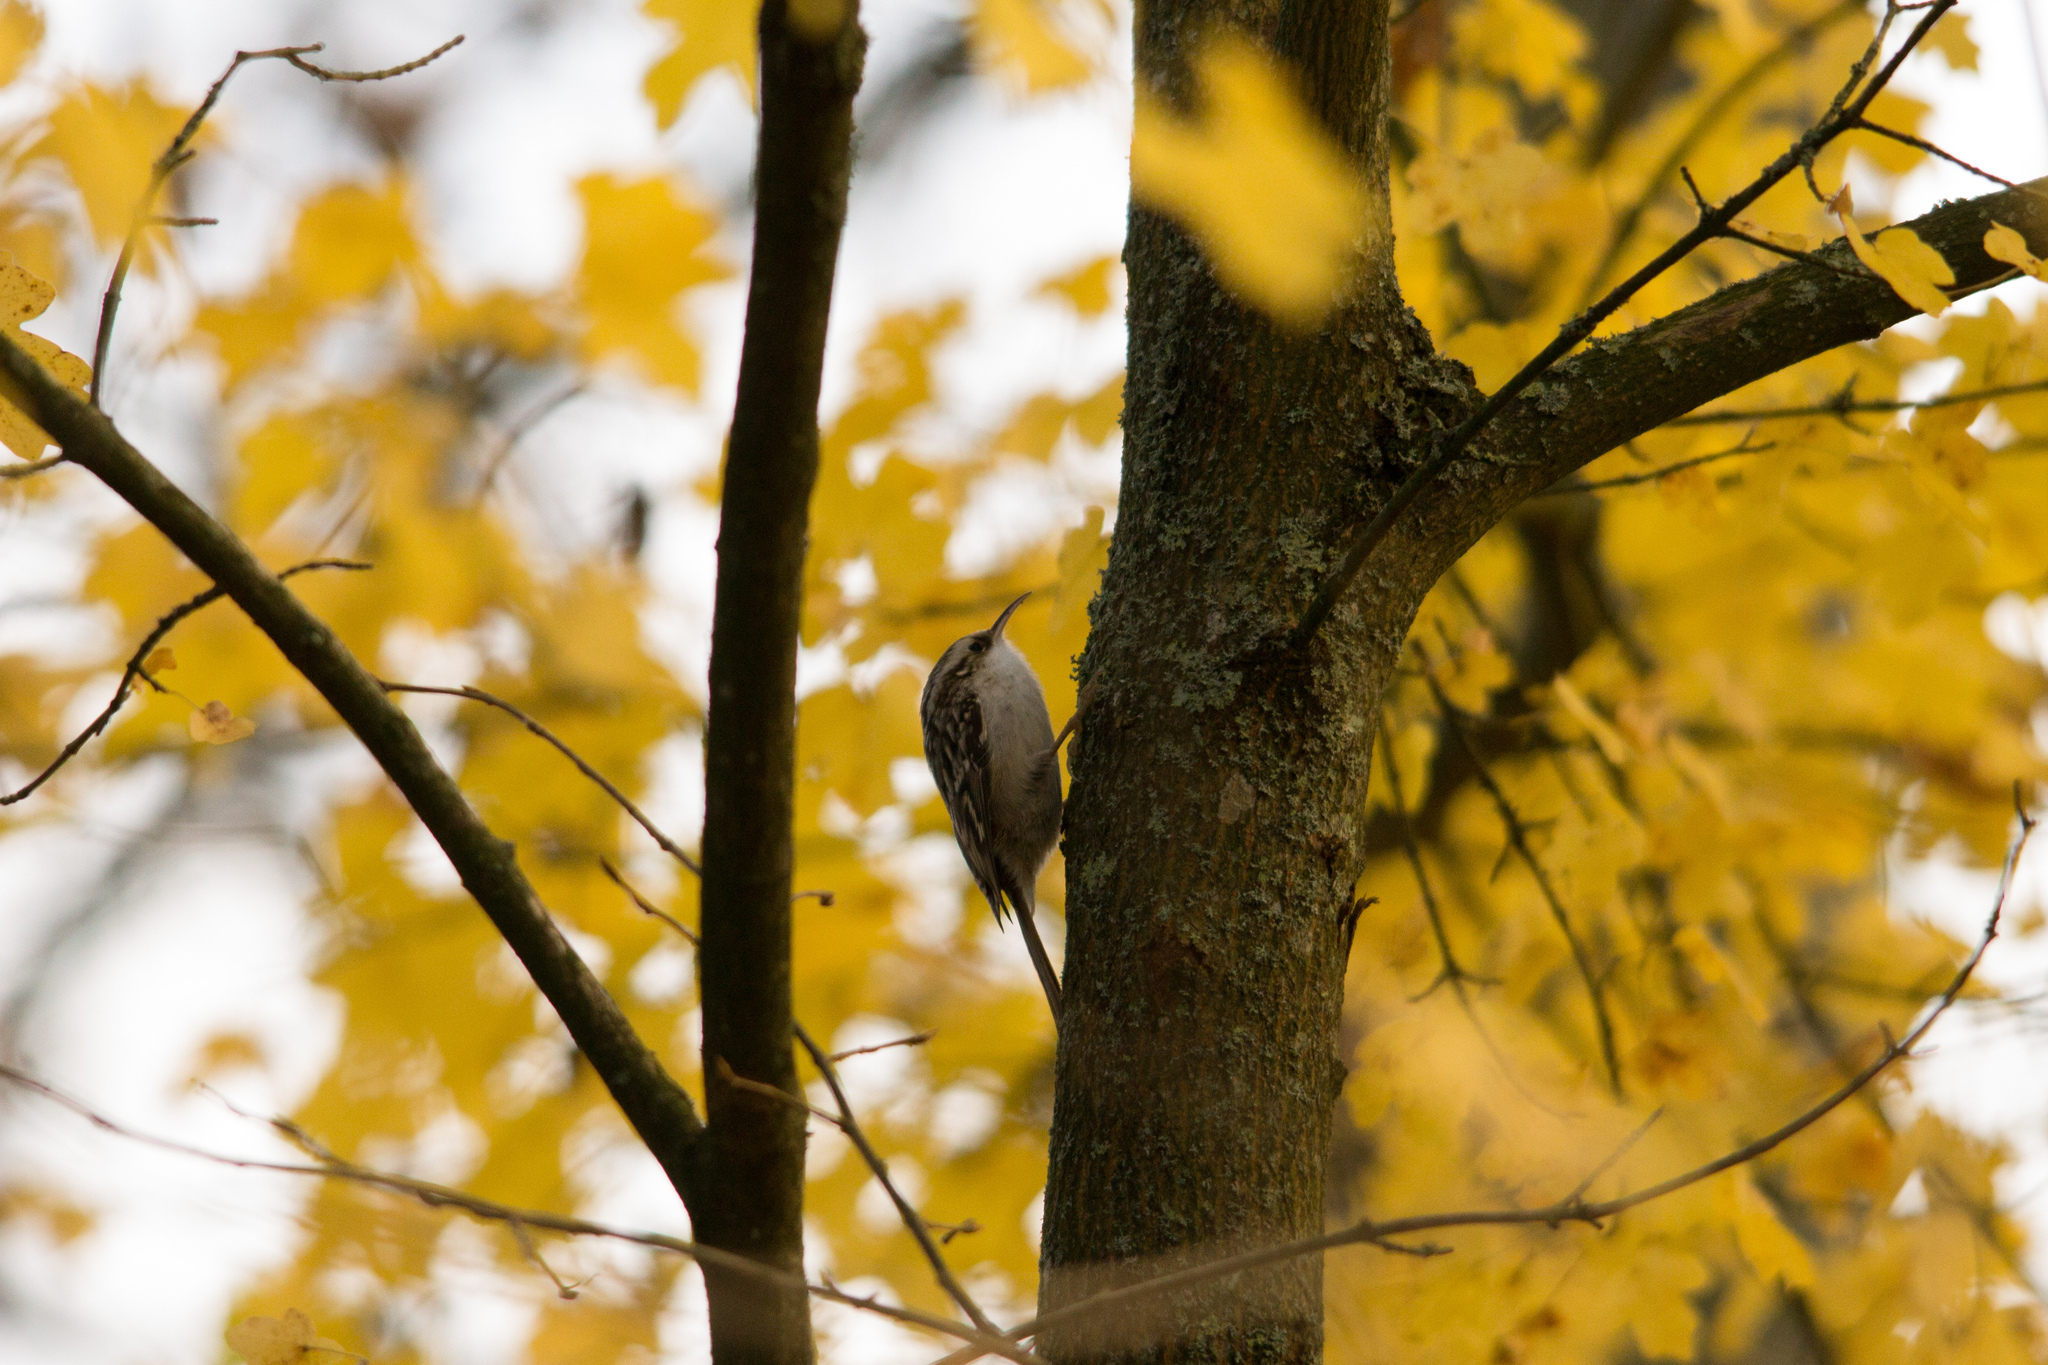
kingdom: Animalia
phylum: Chordata
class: Aves
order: Passeriformes
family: Certhiidae
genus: Certhia
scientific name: Certhia brachydactyla
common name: Short-toed treecreeper
